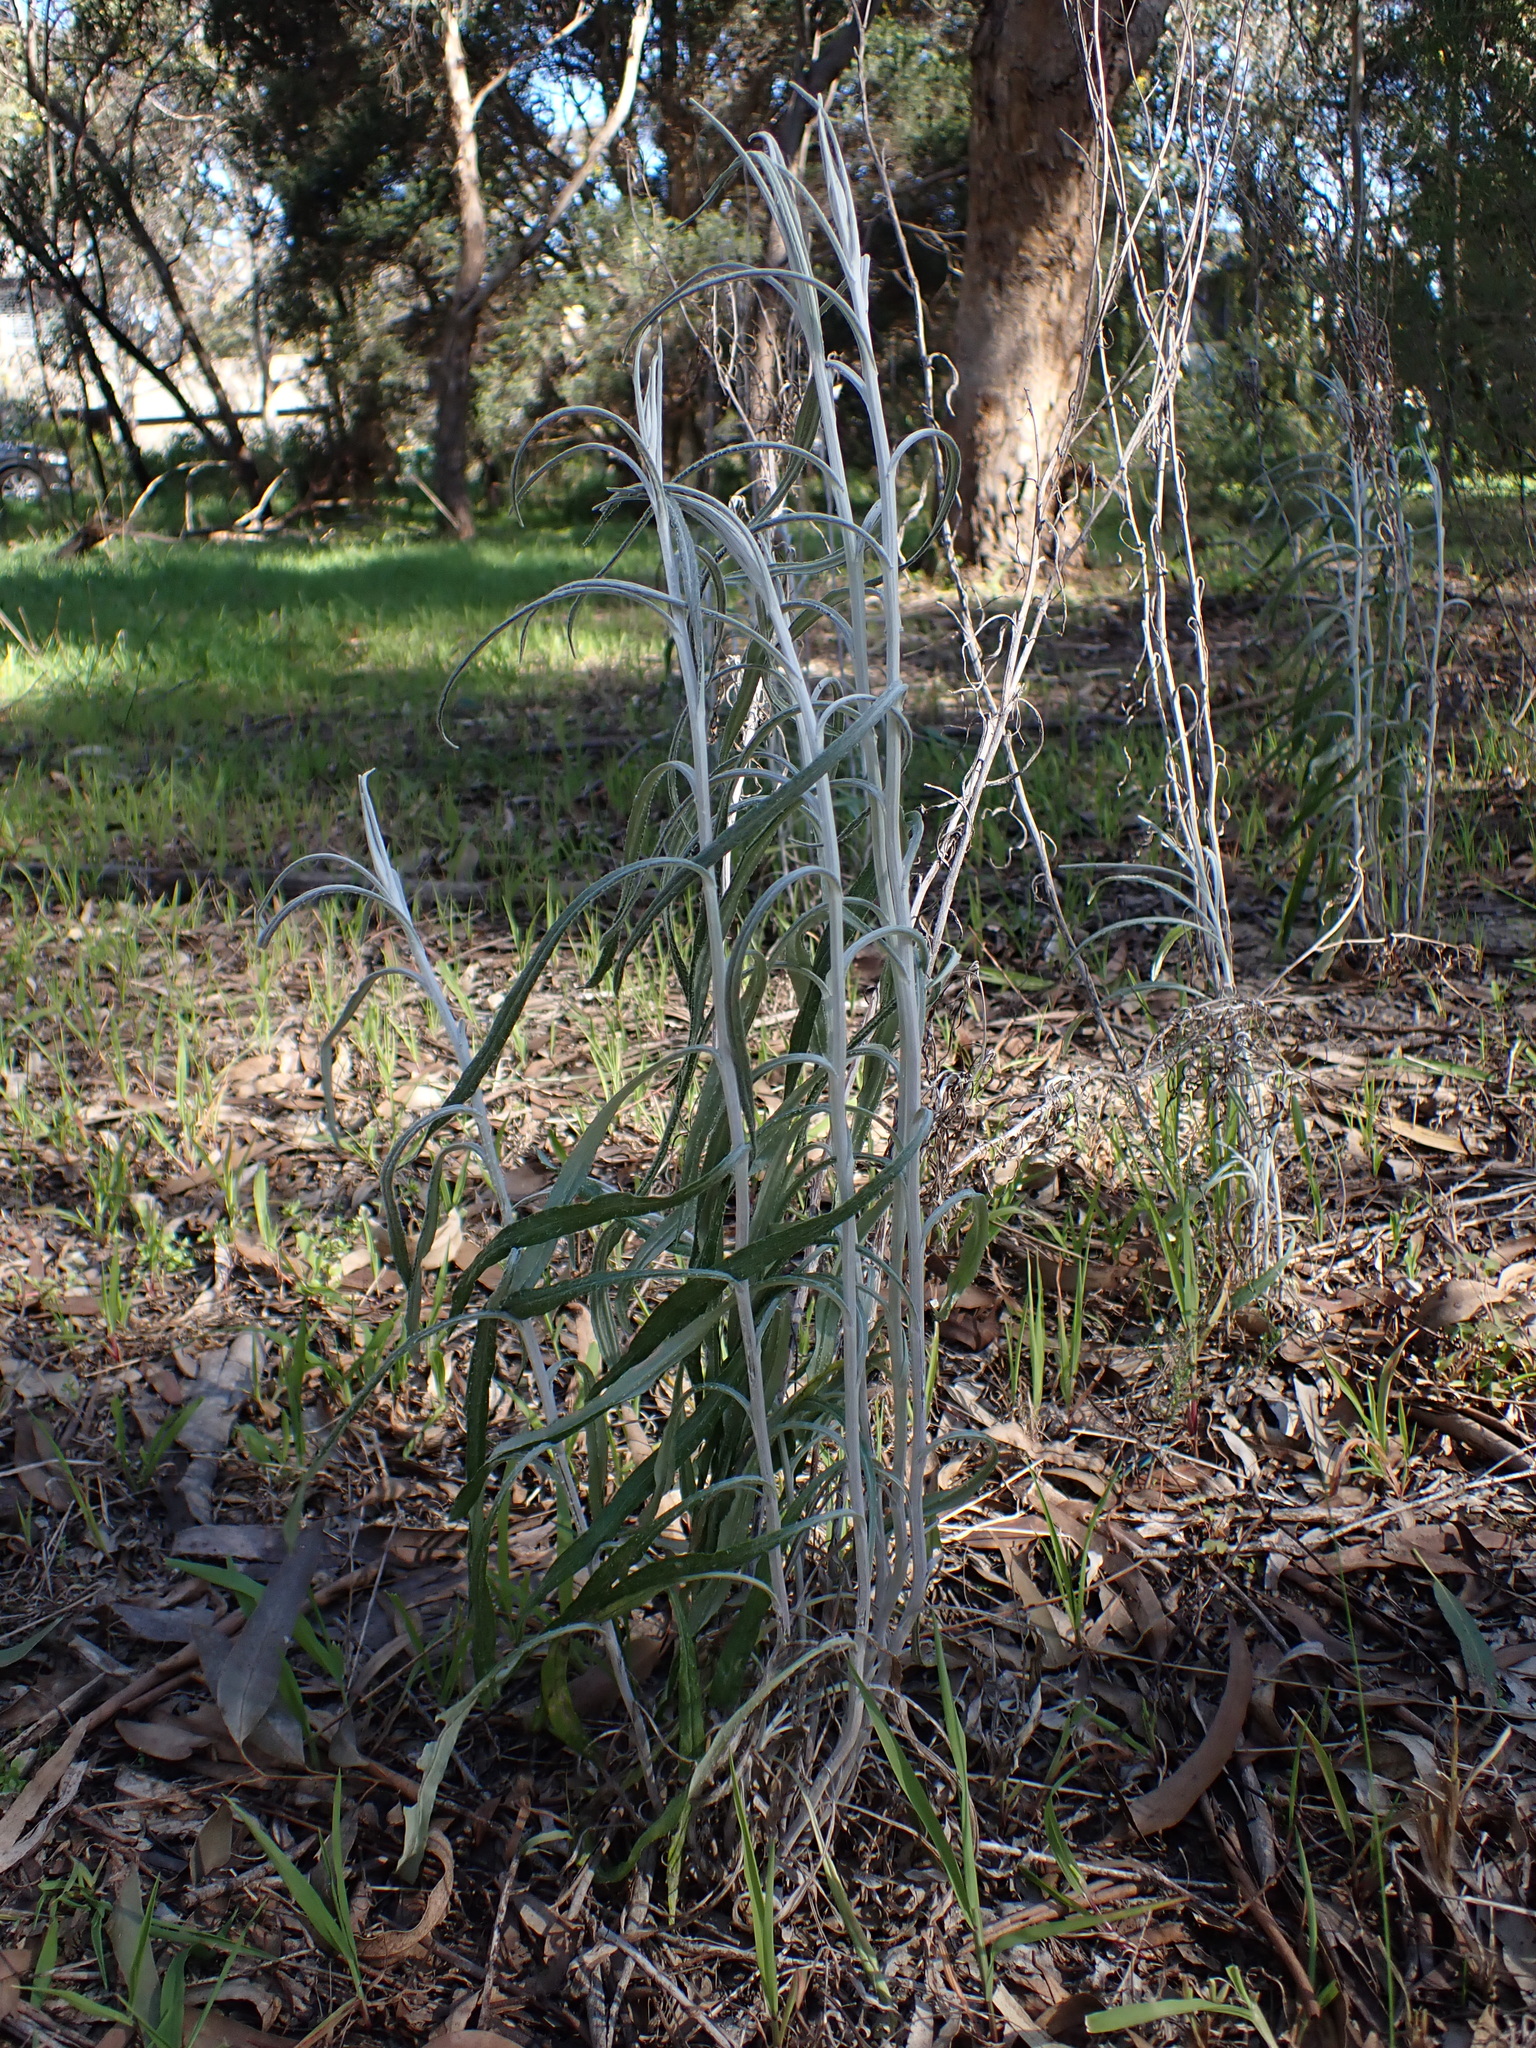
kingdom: Plantae
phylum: Tracheophyta
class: Magnoliopsida
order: Asterales
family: Asteraceae
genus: Senecio
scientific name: Senecio quadridentatus
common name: Cotton fireweed
